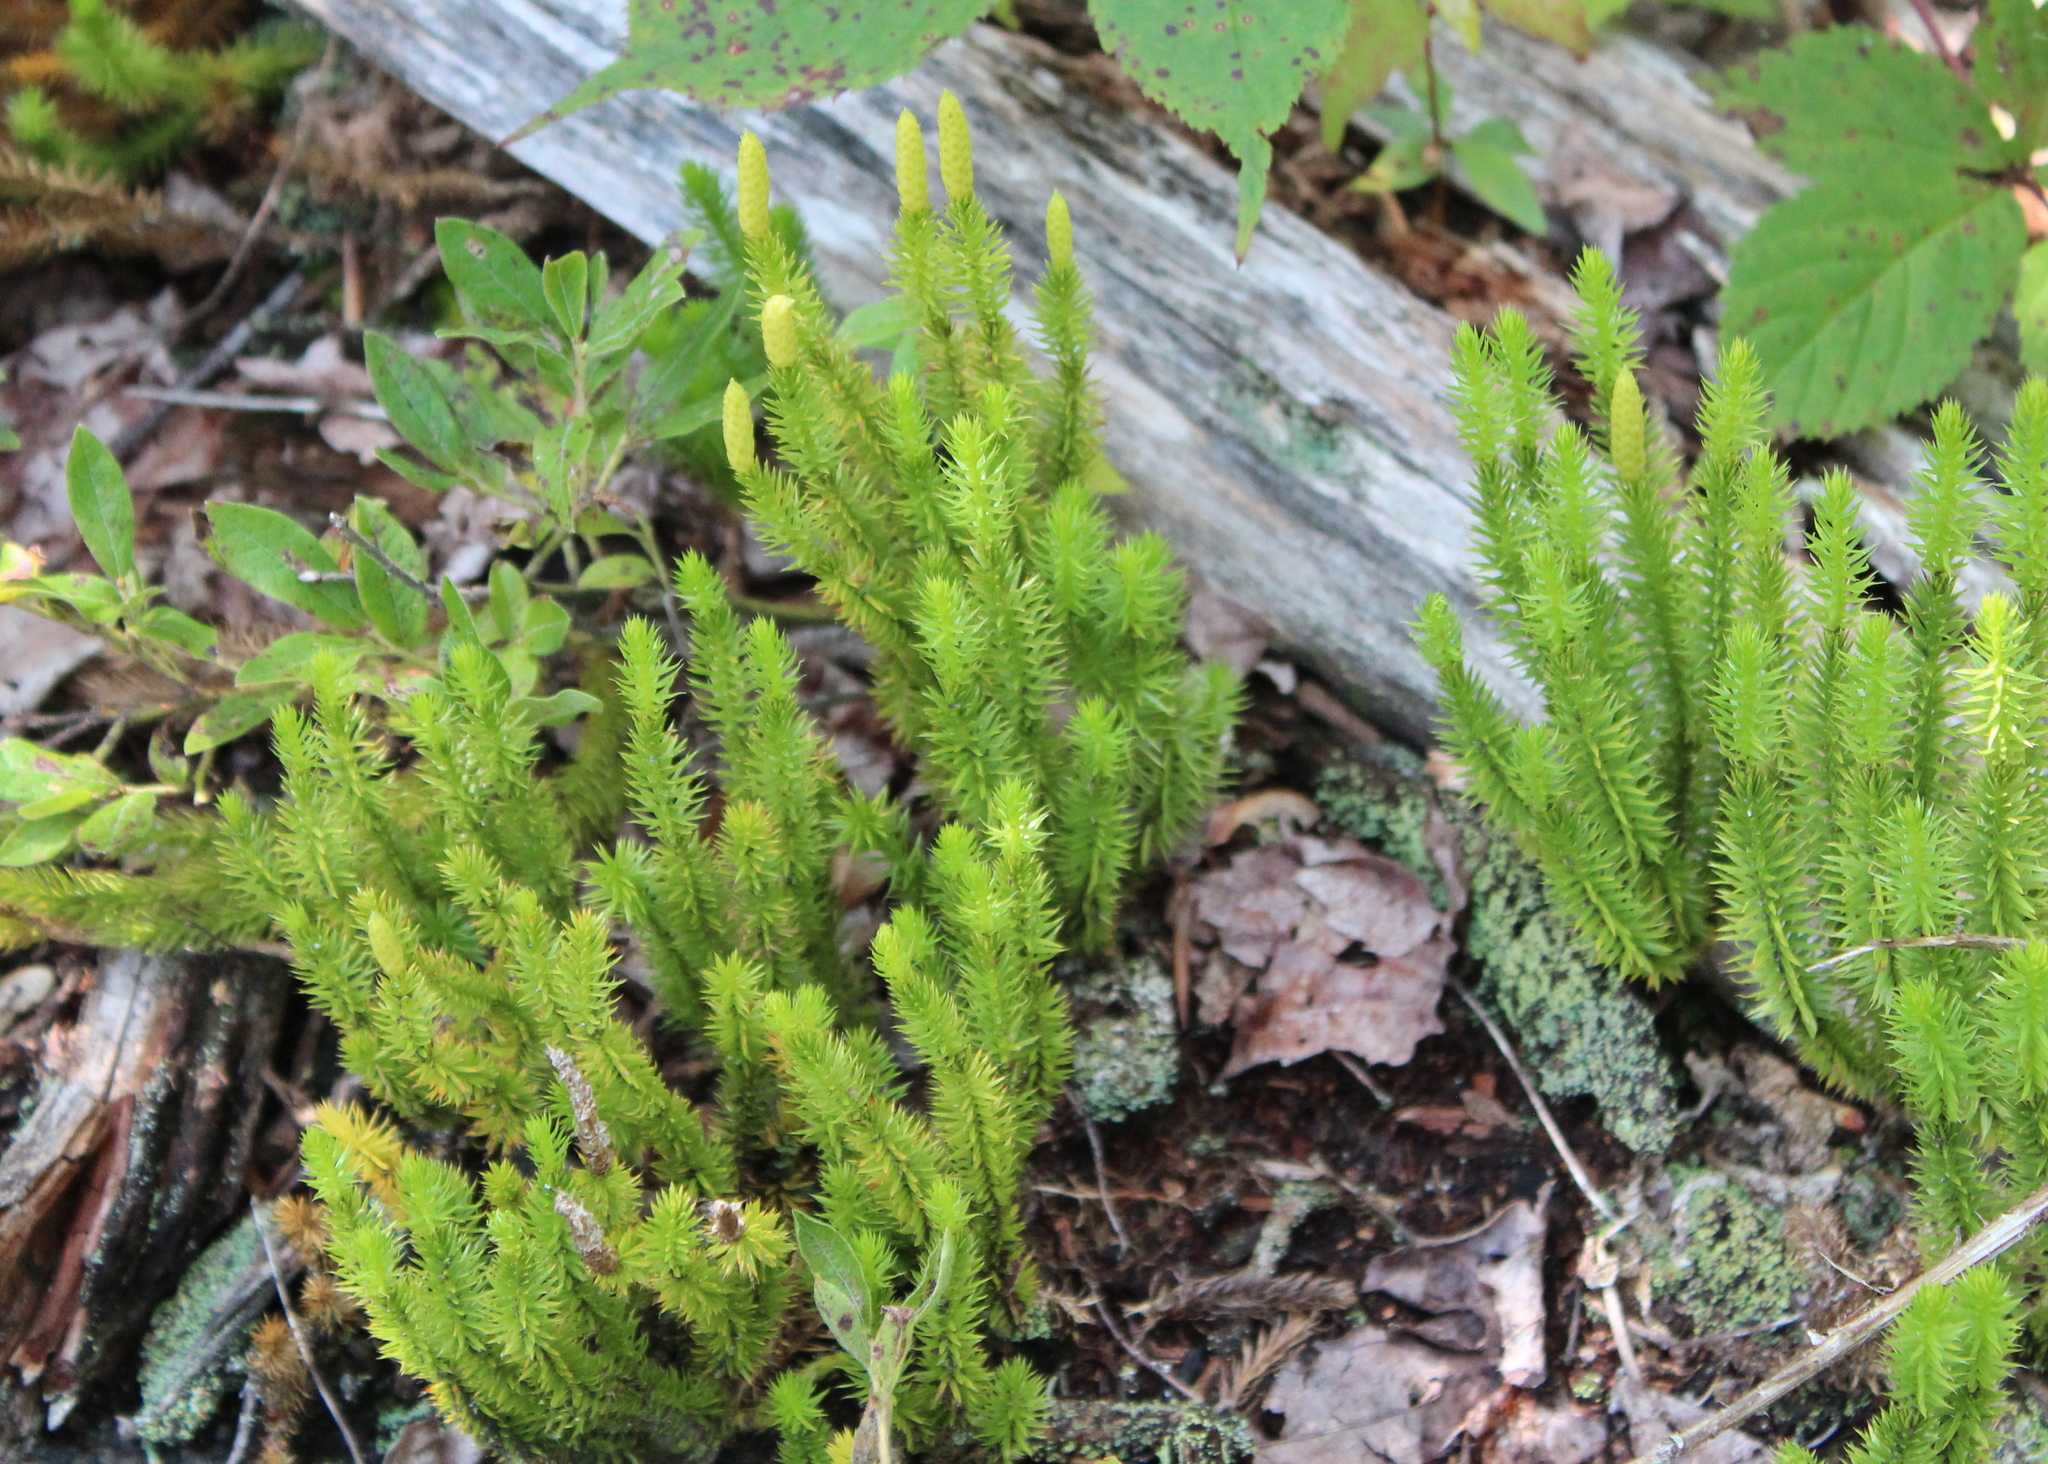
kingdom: Plantae
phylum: Tracheophyta
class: Lycopodiopsida
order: Lycopodiales
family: Lycopodiaceae
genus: Spinulum
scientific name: Spinulum annotinum
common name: Interrupted club-moss
